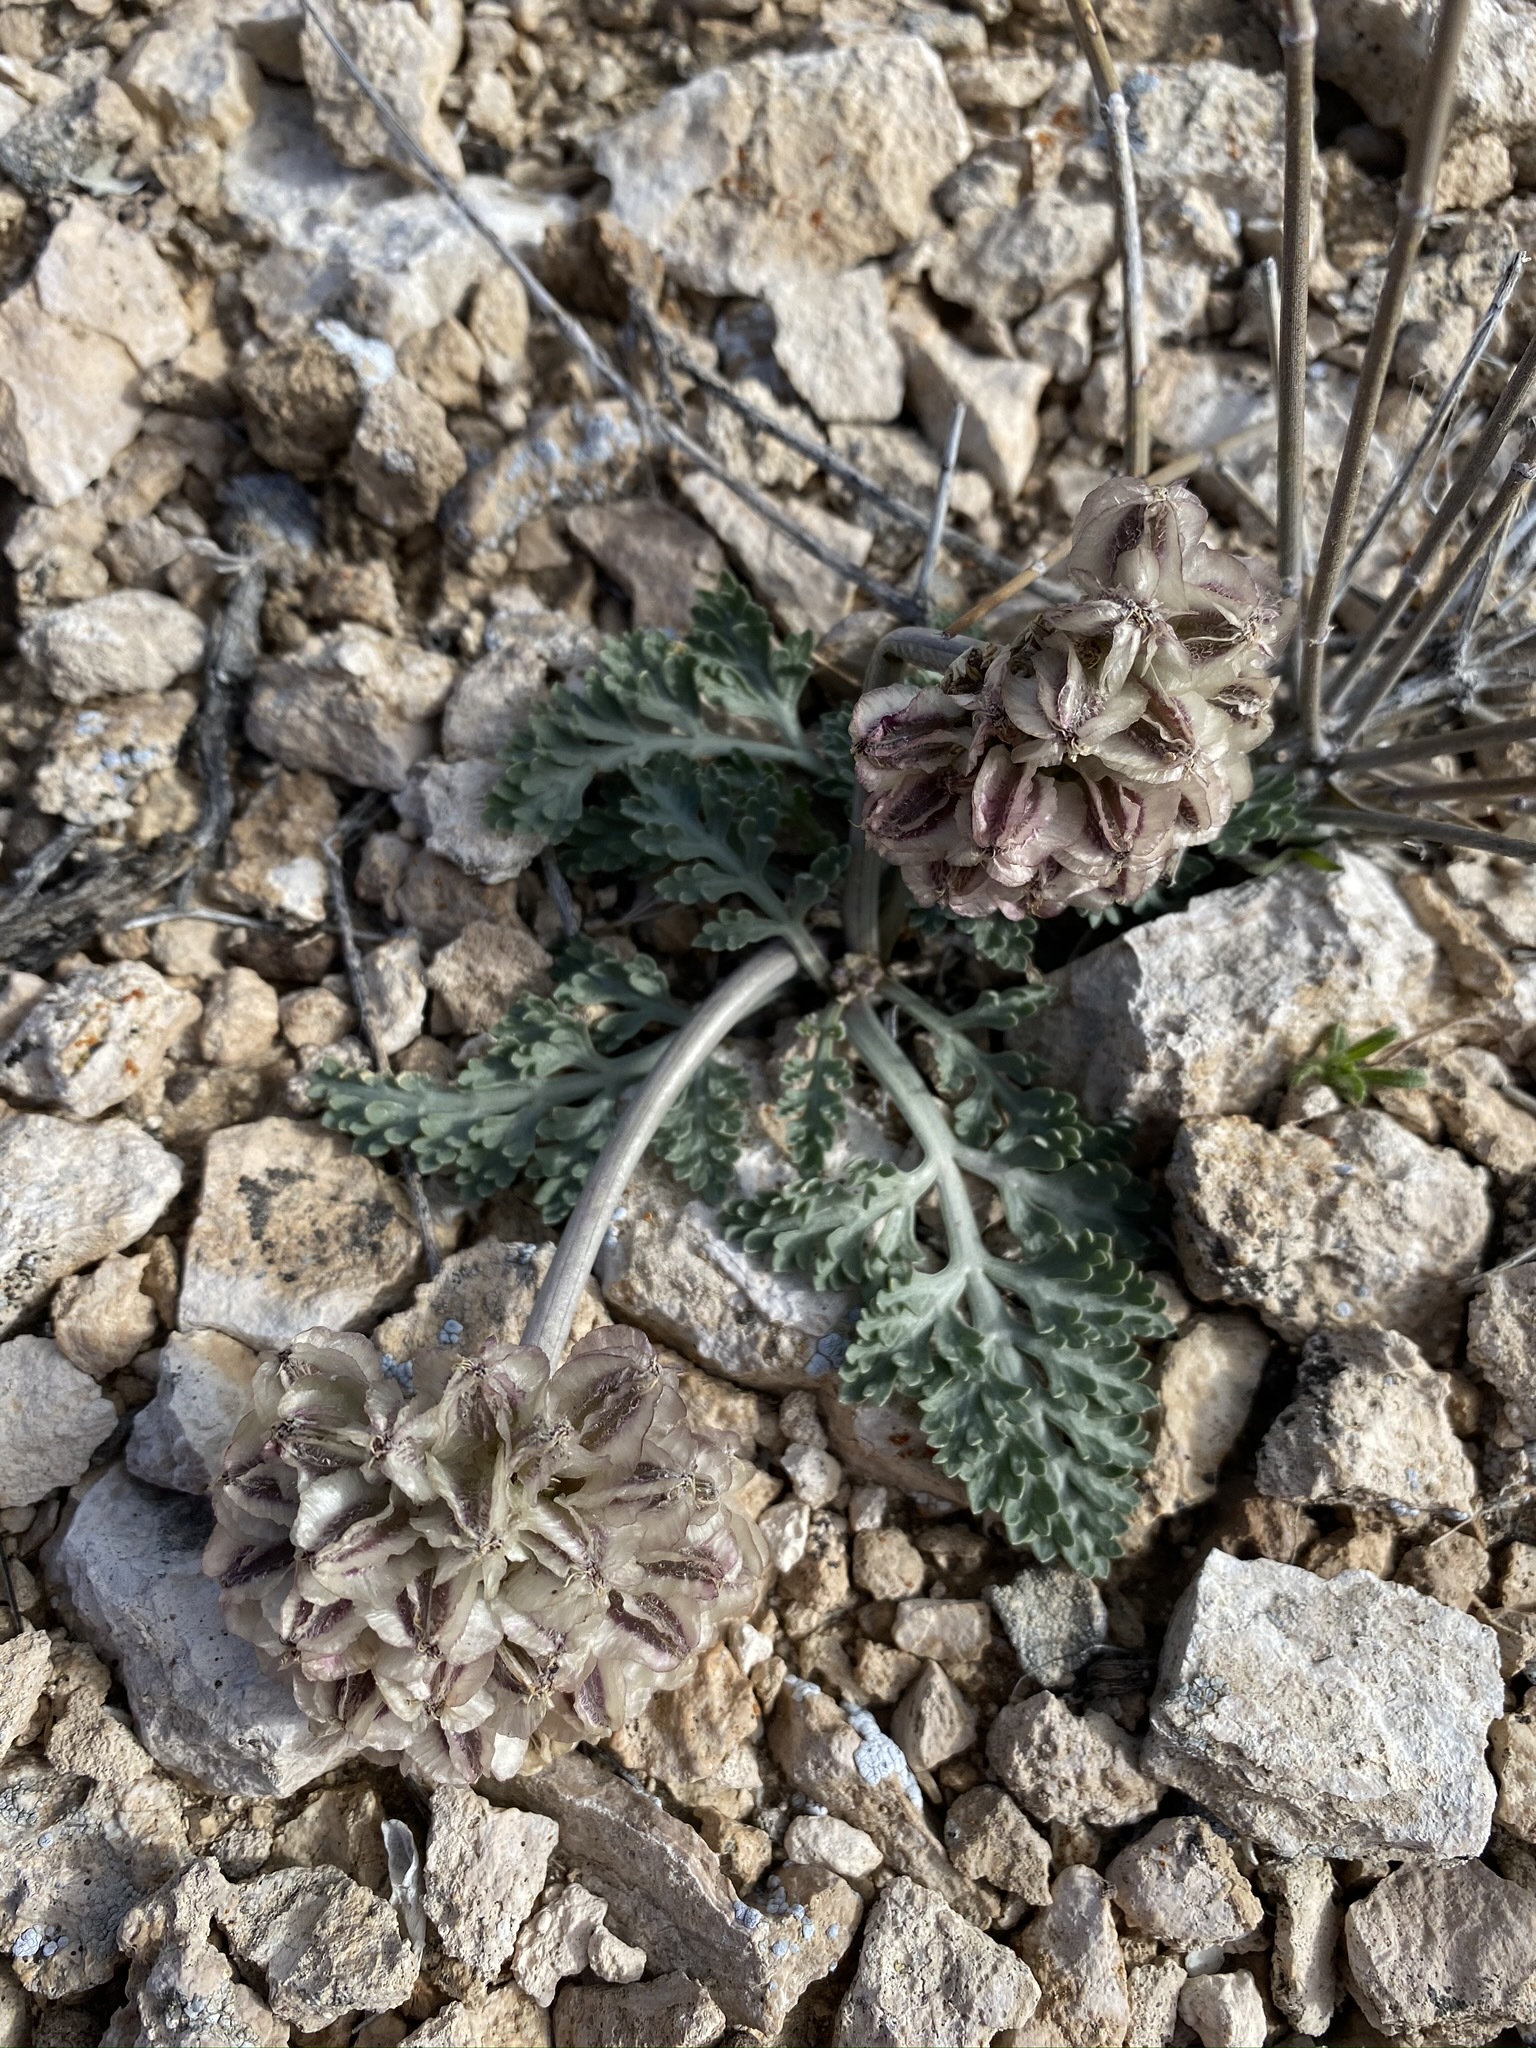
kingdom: Plantae
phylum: Tracheophyta
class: Magnoliopsida
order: Apiales
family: Apiaceae
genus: Vesper
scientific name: Vesper purpurascens
